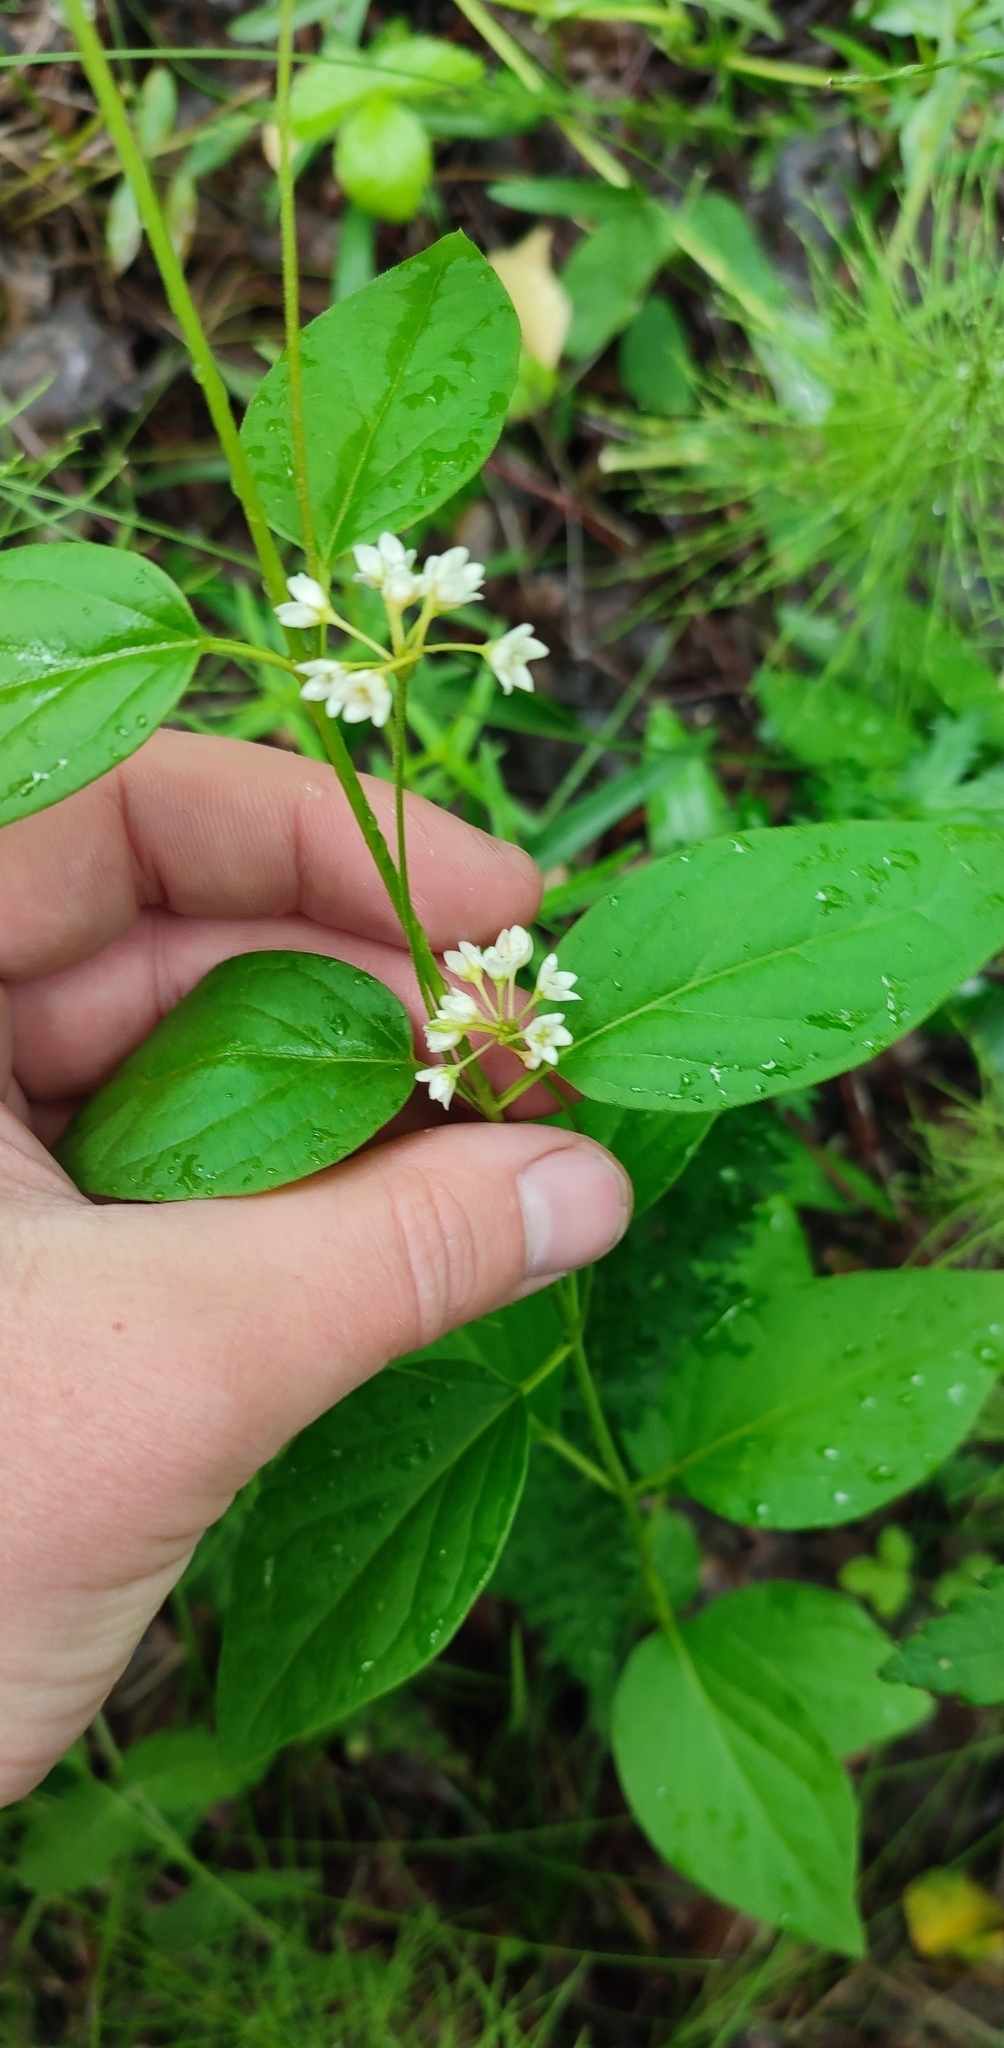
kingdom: Plantae
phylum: Tracheophyta
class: Magnoliopsida
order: Gentianales
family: Apocynaceae
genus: Vincetoxicum
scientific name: Vincetoxicum hirundinaria
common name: White swallowwort
